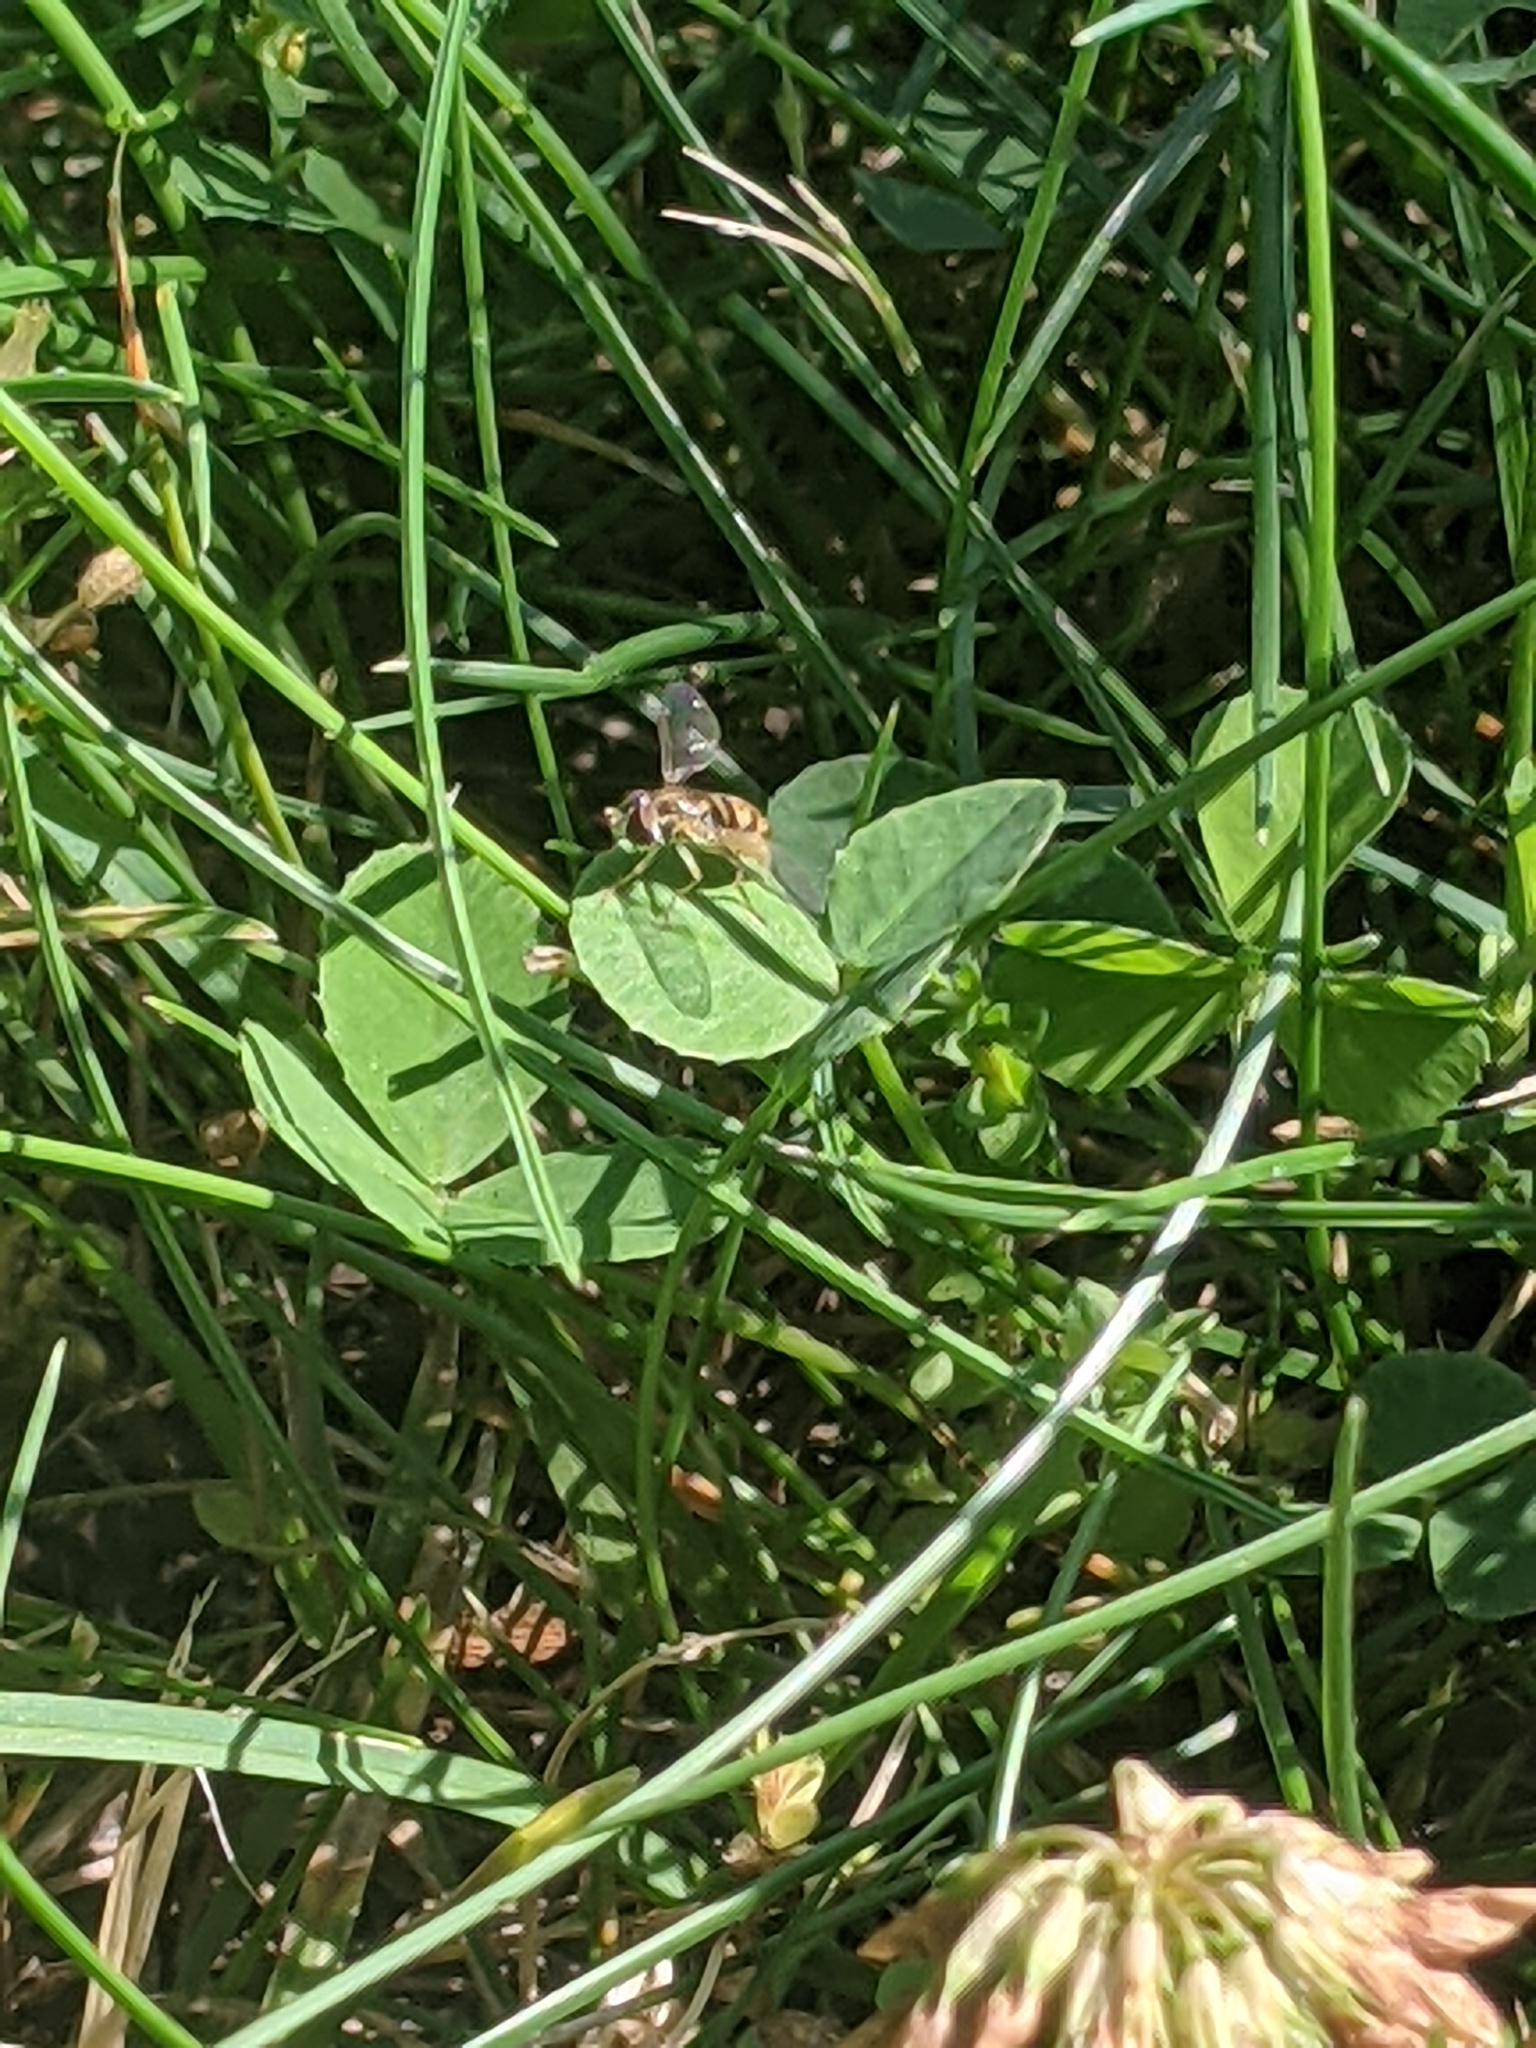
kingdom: Animalia
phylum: Arthropoda
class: Insecta
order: Diptera
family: Syrphidae
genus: Toxomerus
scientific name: Toxomerus marginatus
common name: Syrphid fly
